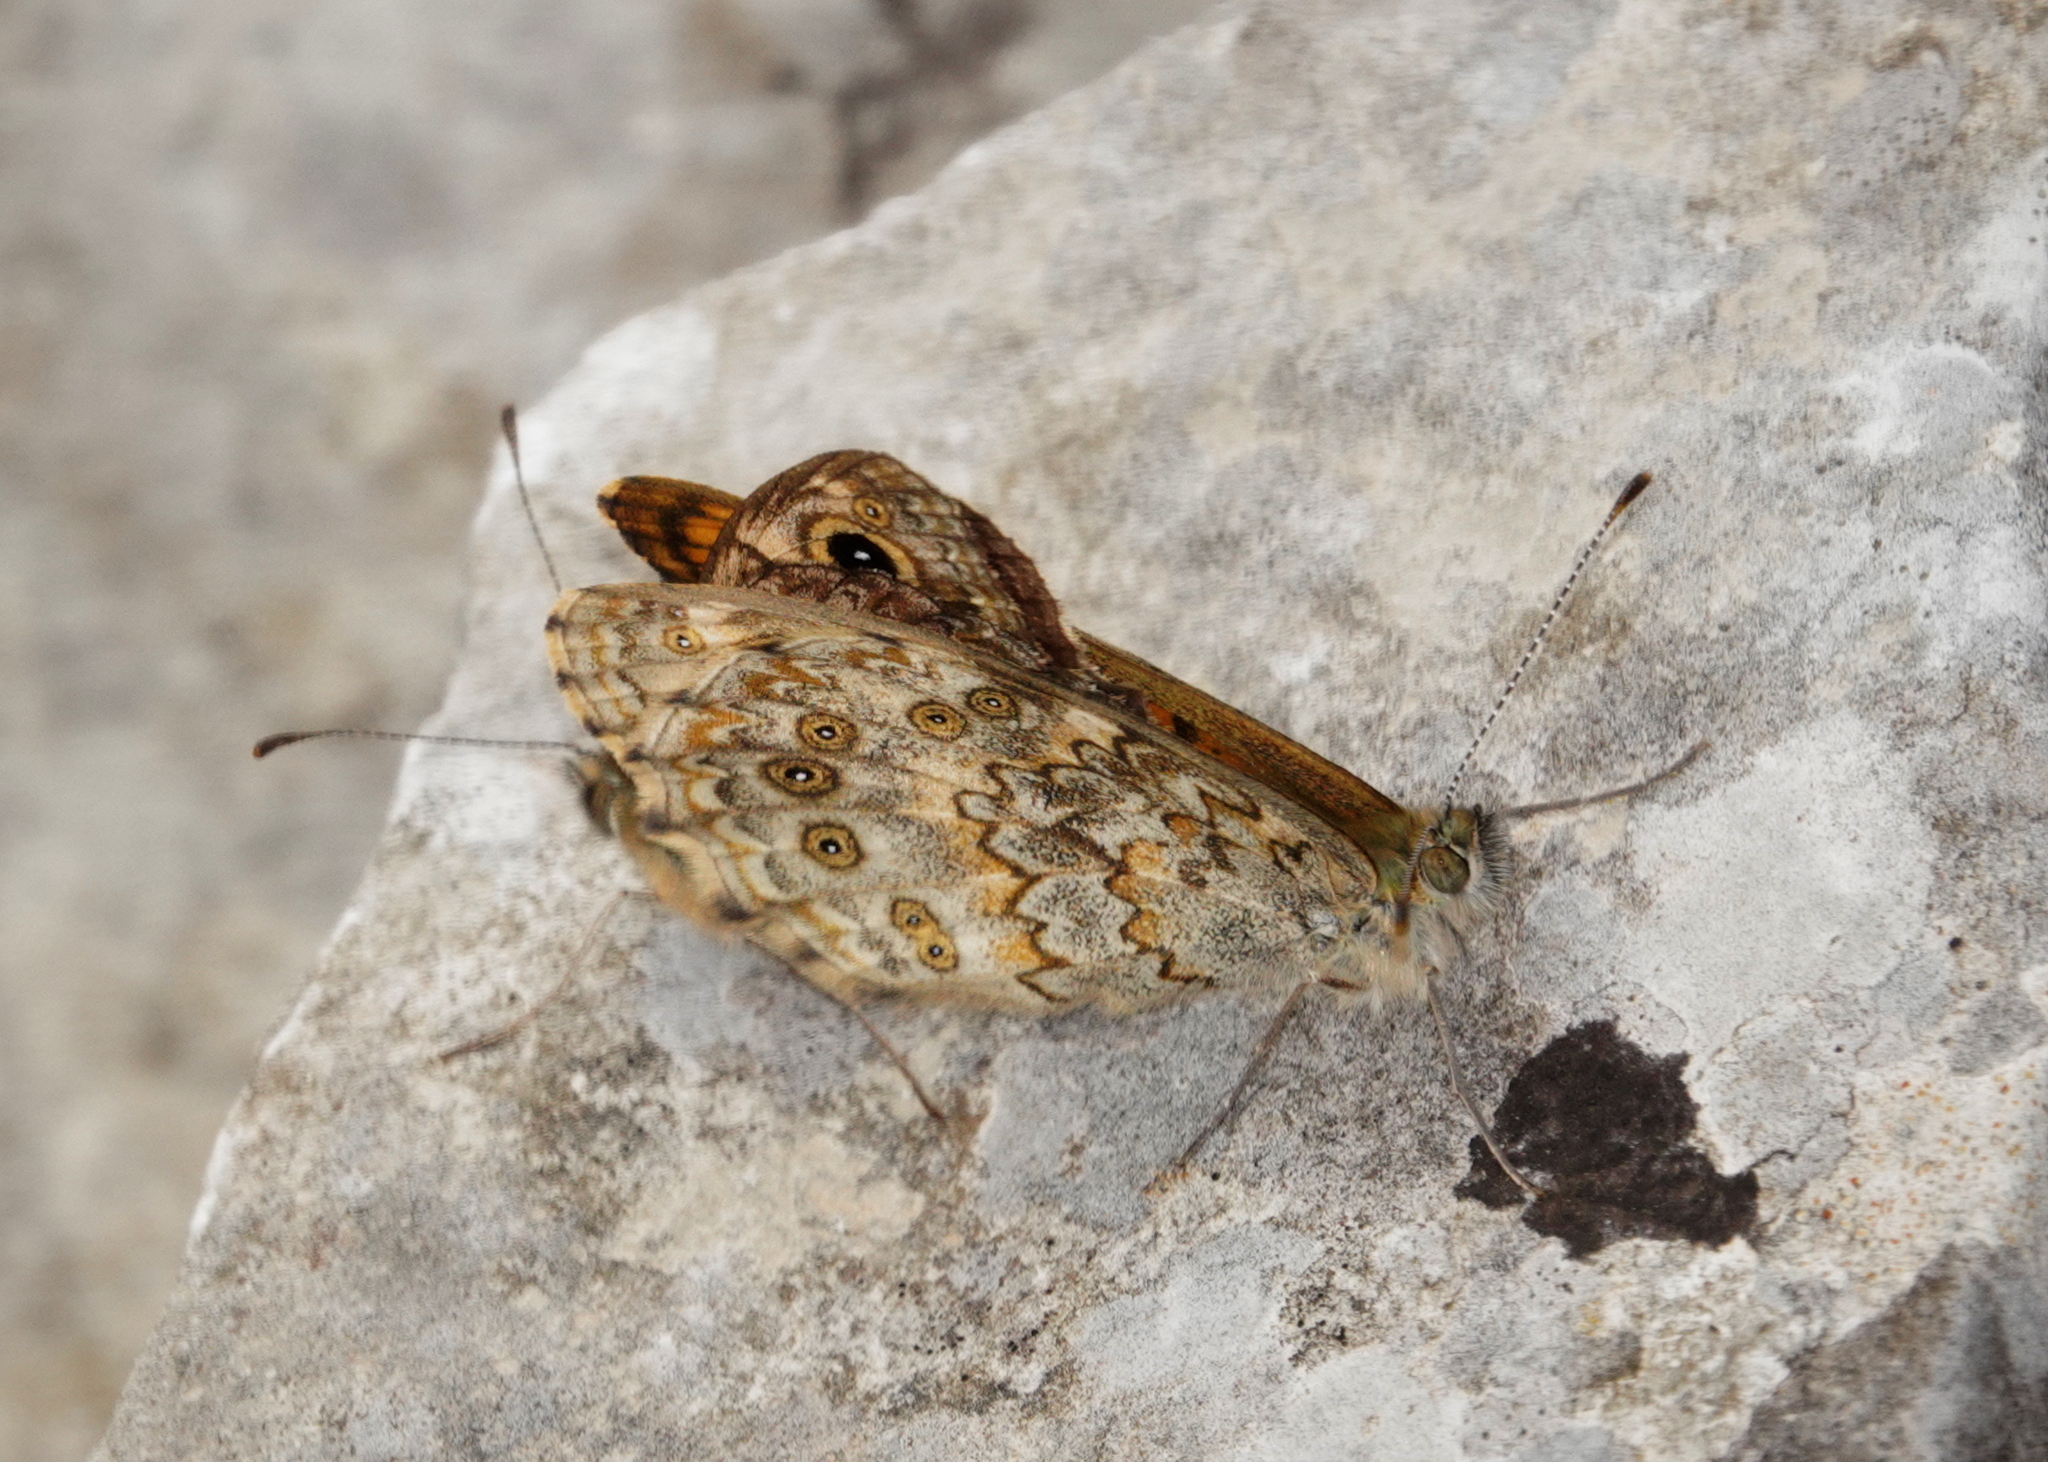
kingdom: Animalia
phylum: Arthropoda
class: Insecta
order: Lepidoptera
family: Nymphalidae
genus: Pararge
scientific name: Pararge Lasiommata megera
